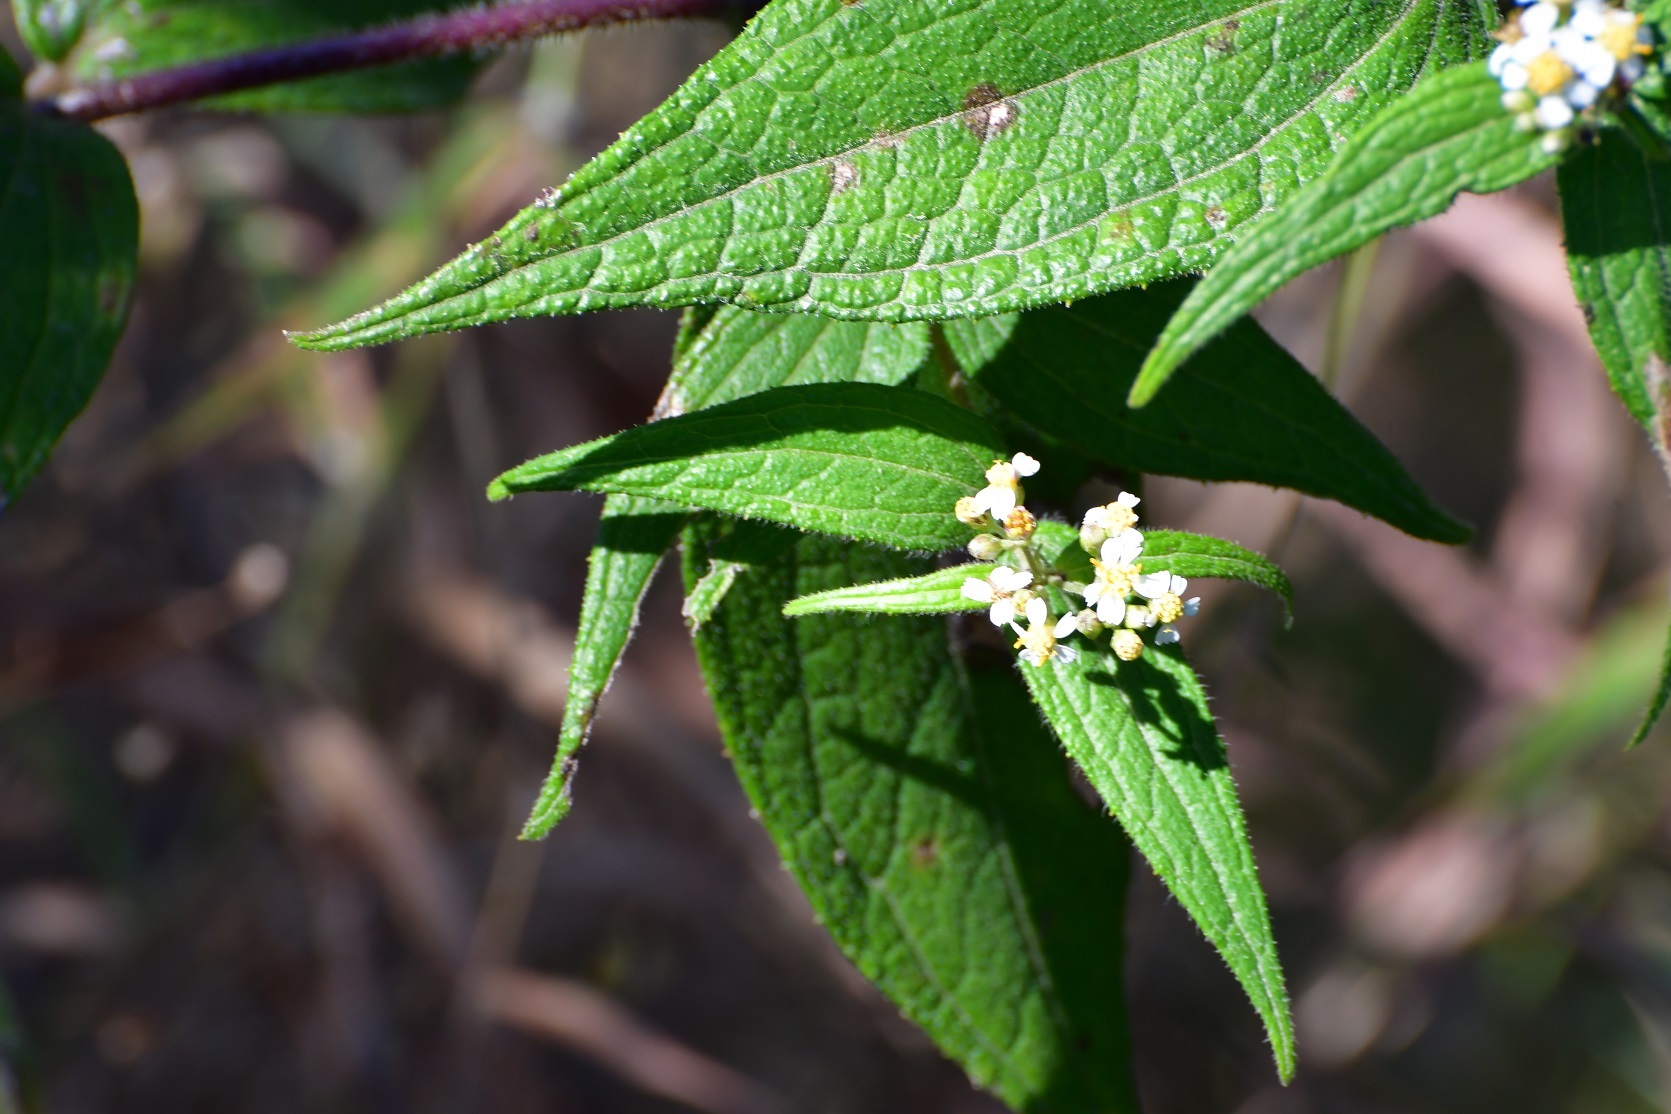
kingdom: Plantae
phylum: Tracheophyta
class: Magnoliopsida
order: Asterales
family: Asteraceae
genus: Alloispermum
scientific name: Alloispermum integrifolium
